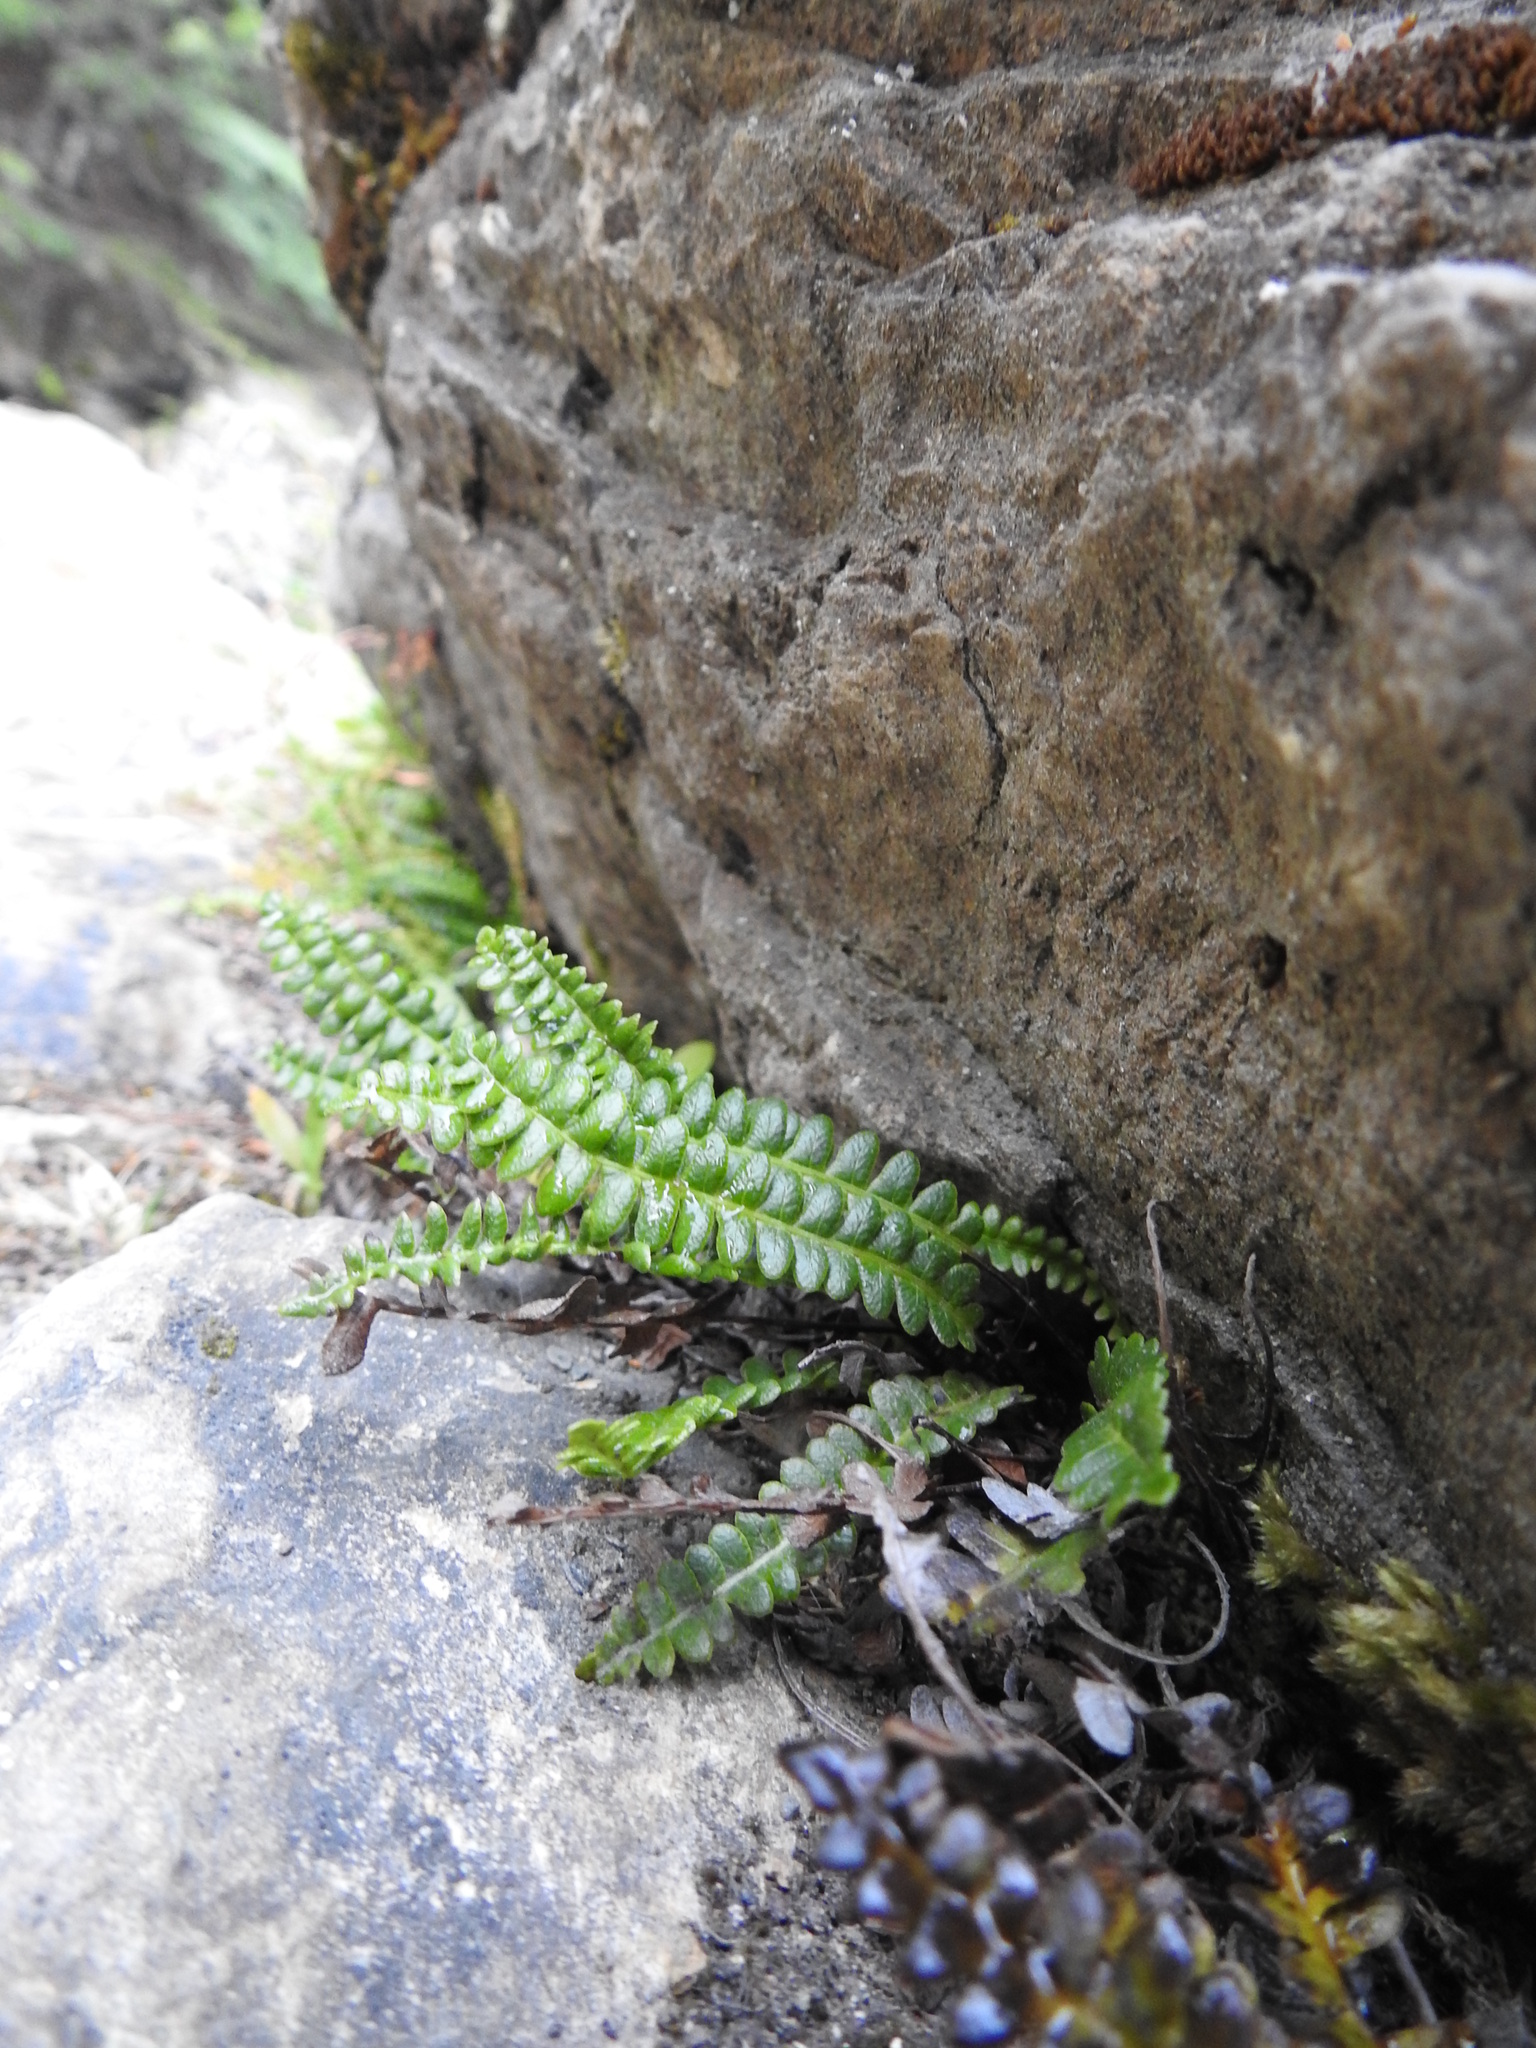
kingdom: Plantae
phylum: Tracheophyta
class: Polypodiopsida
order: Polypodiales
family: Blechnaceae
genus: Austroblechnum
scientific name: Austroblechnum penna-marina
